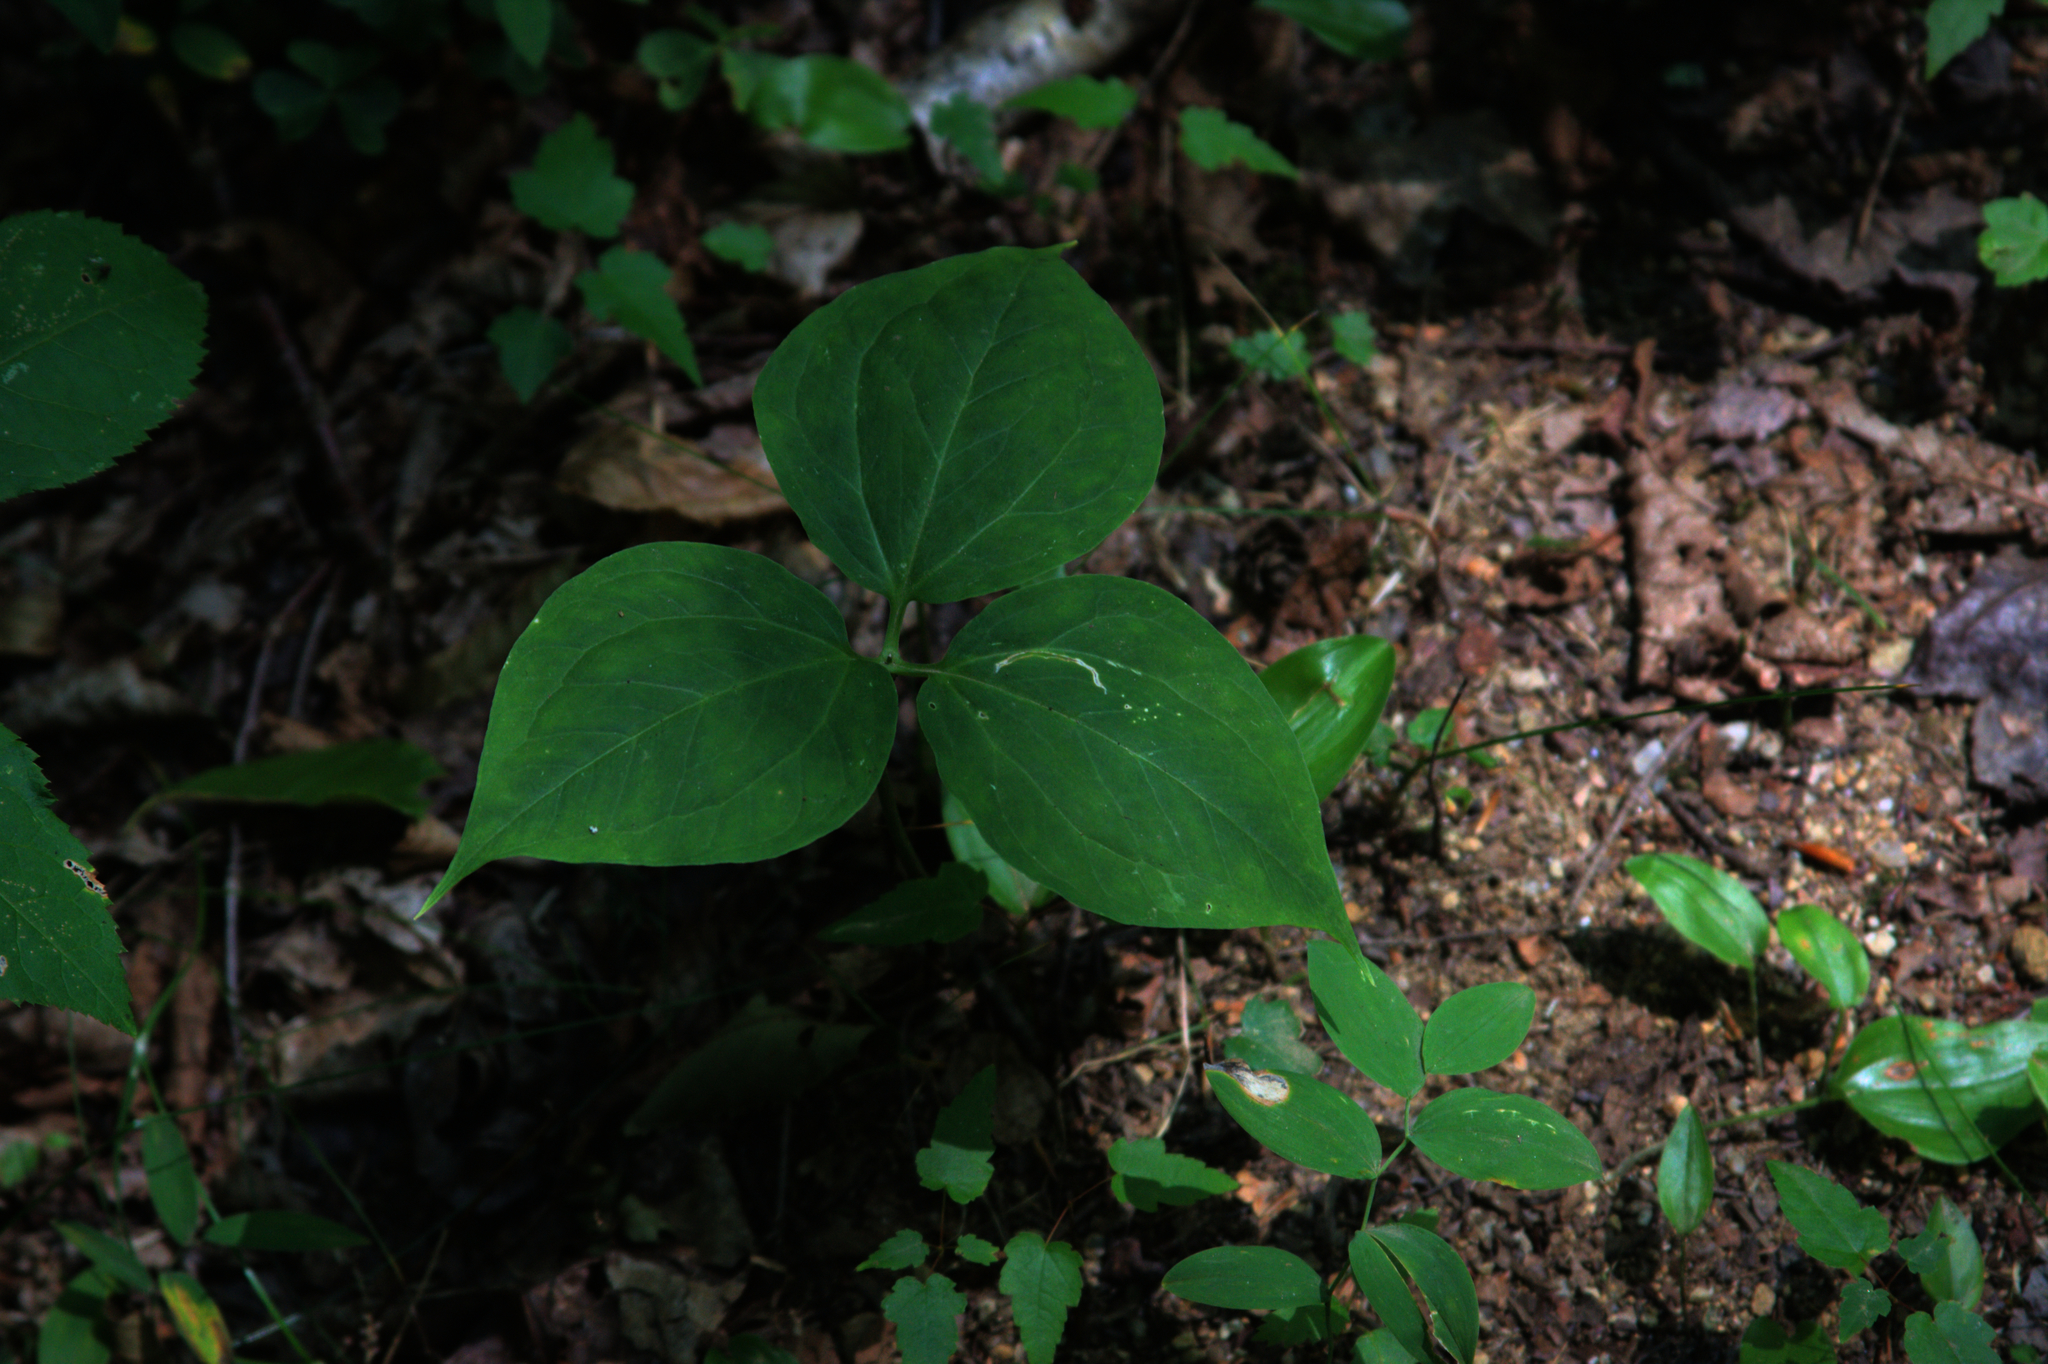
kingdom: Plantae
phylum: Tracheophyta
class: Liliopsida
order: Liliales
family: Melanthiaceae
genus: Trillium
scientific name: Trillium undulatum
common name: Paint trillium
